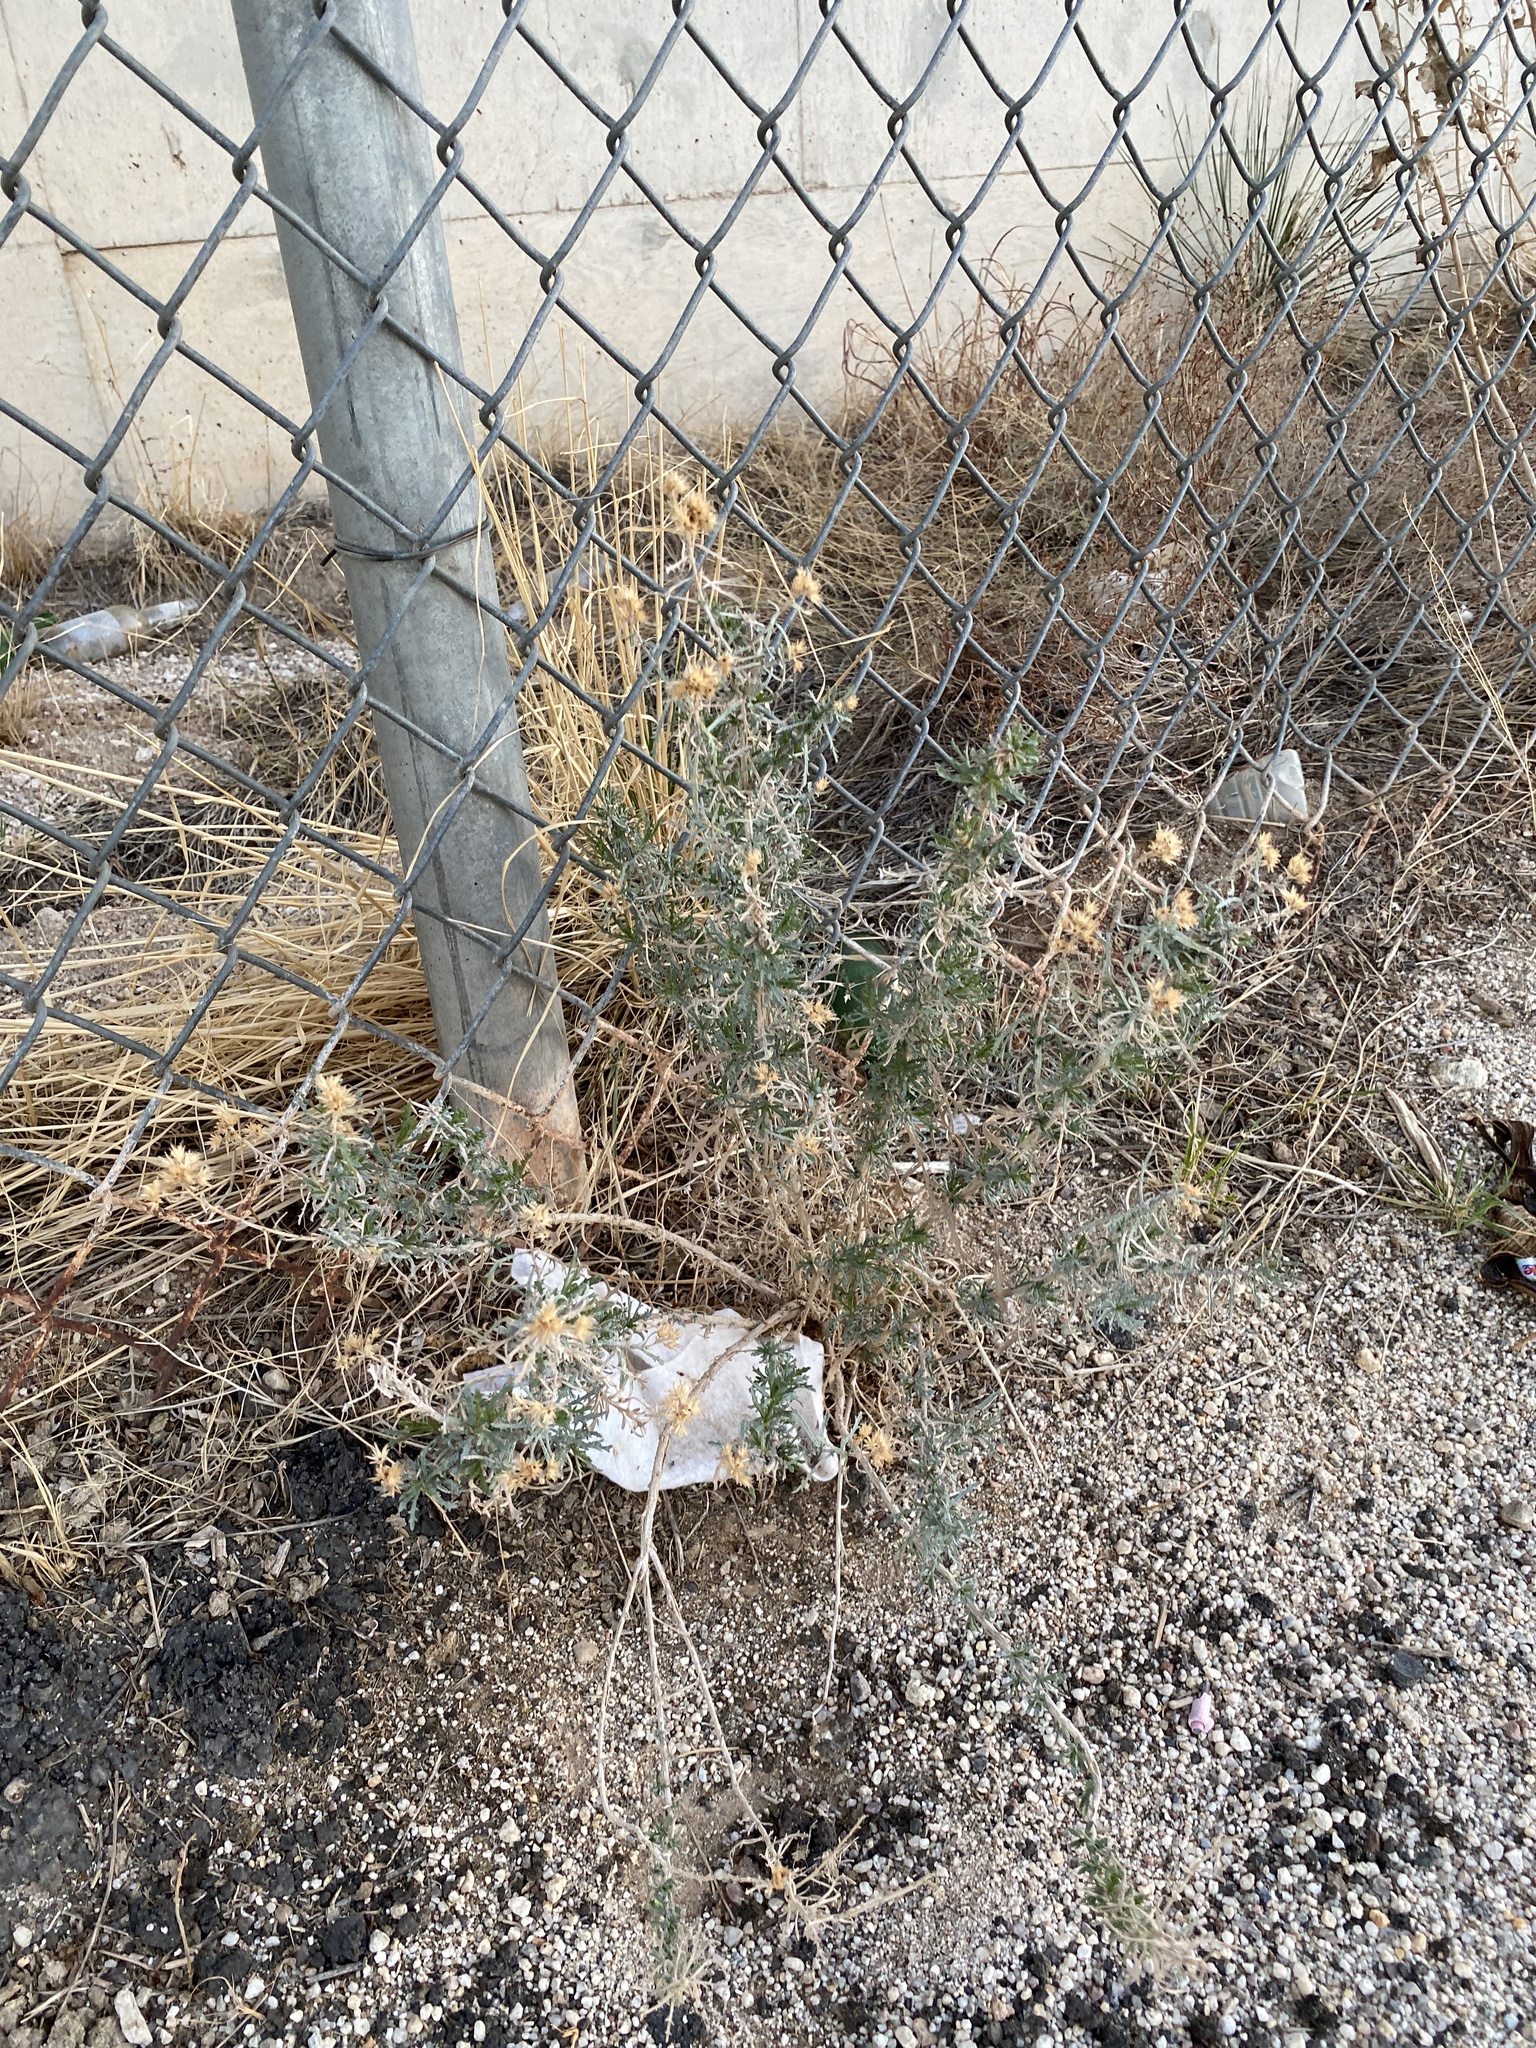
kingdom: Plantae
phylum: Tracheophyta
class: Magnoliopsida
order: Asterales
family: Asteraceae
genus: Isocoma
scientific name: Isocoma tenuisecta
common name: Burroweed
